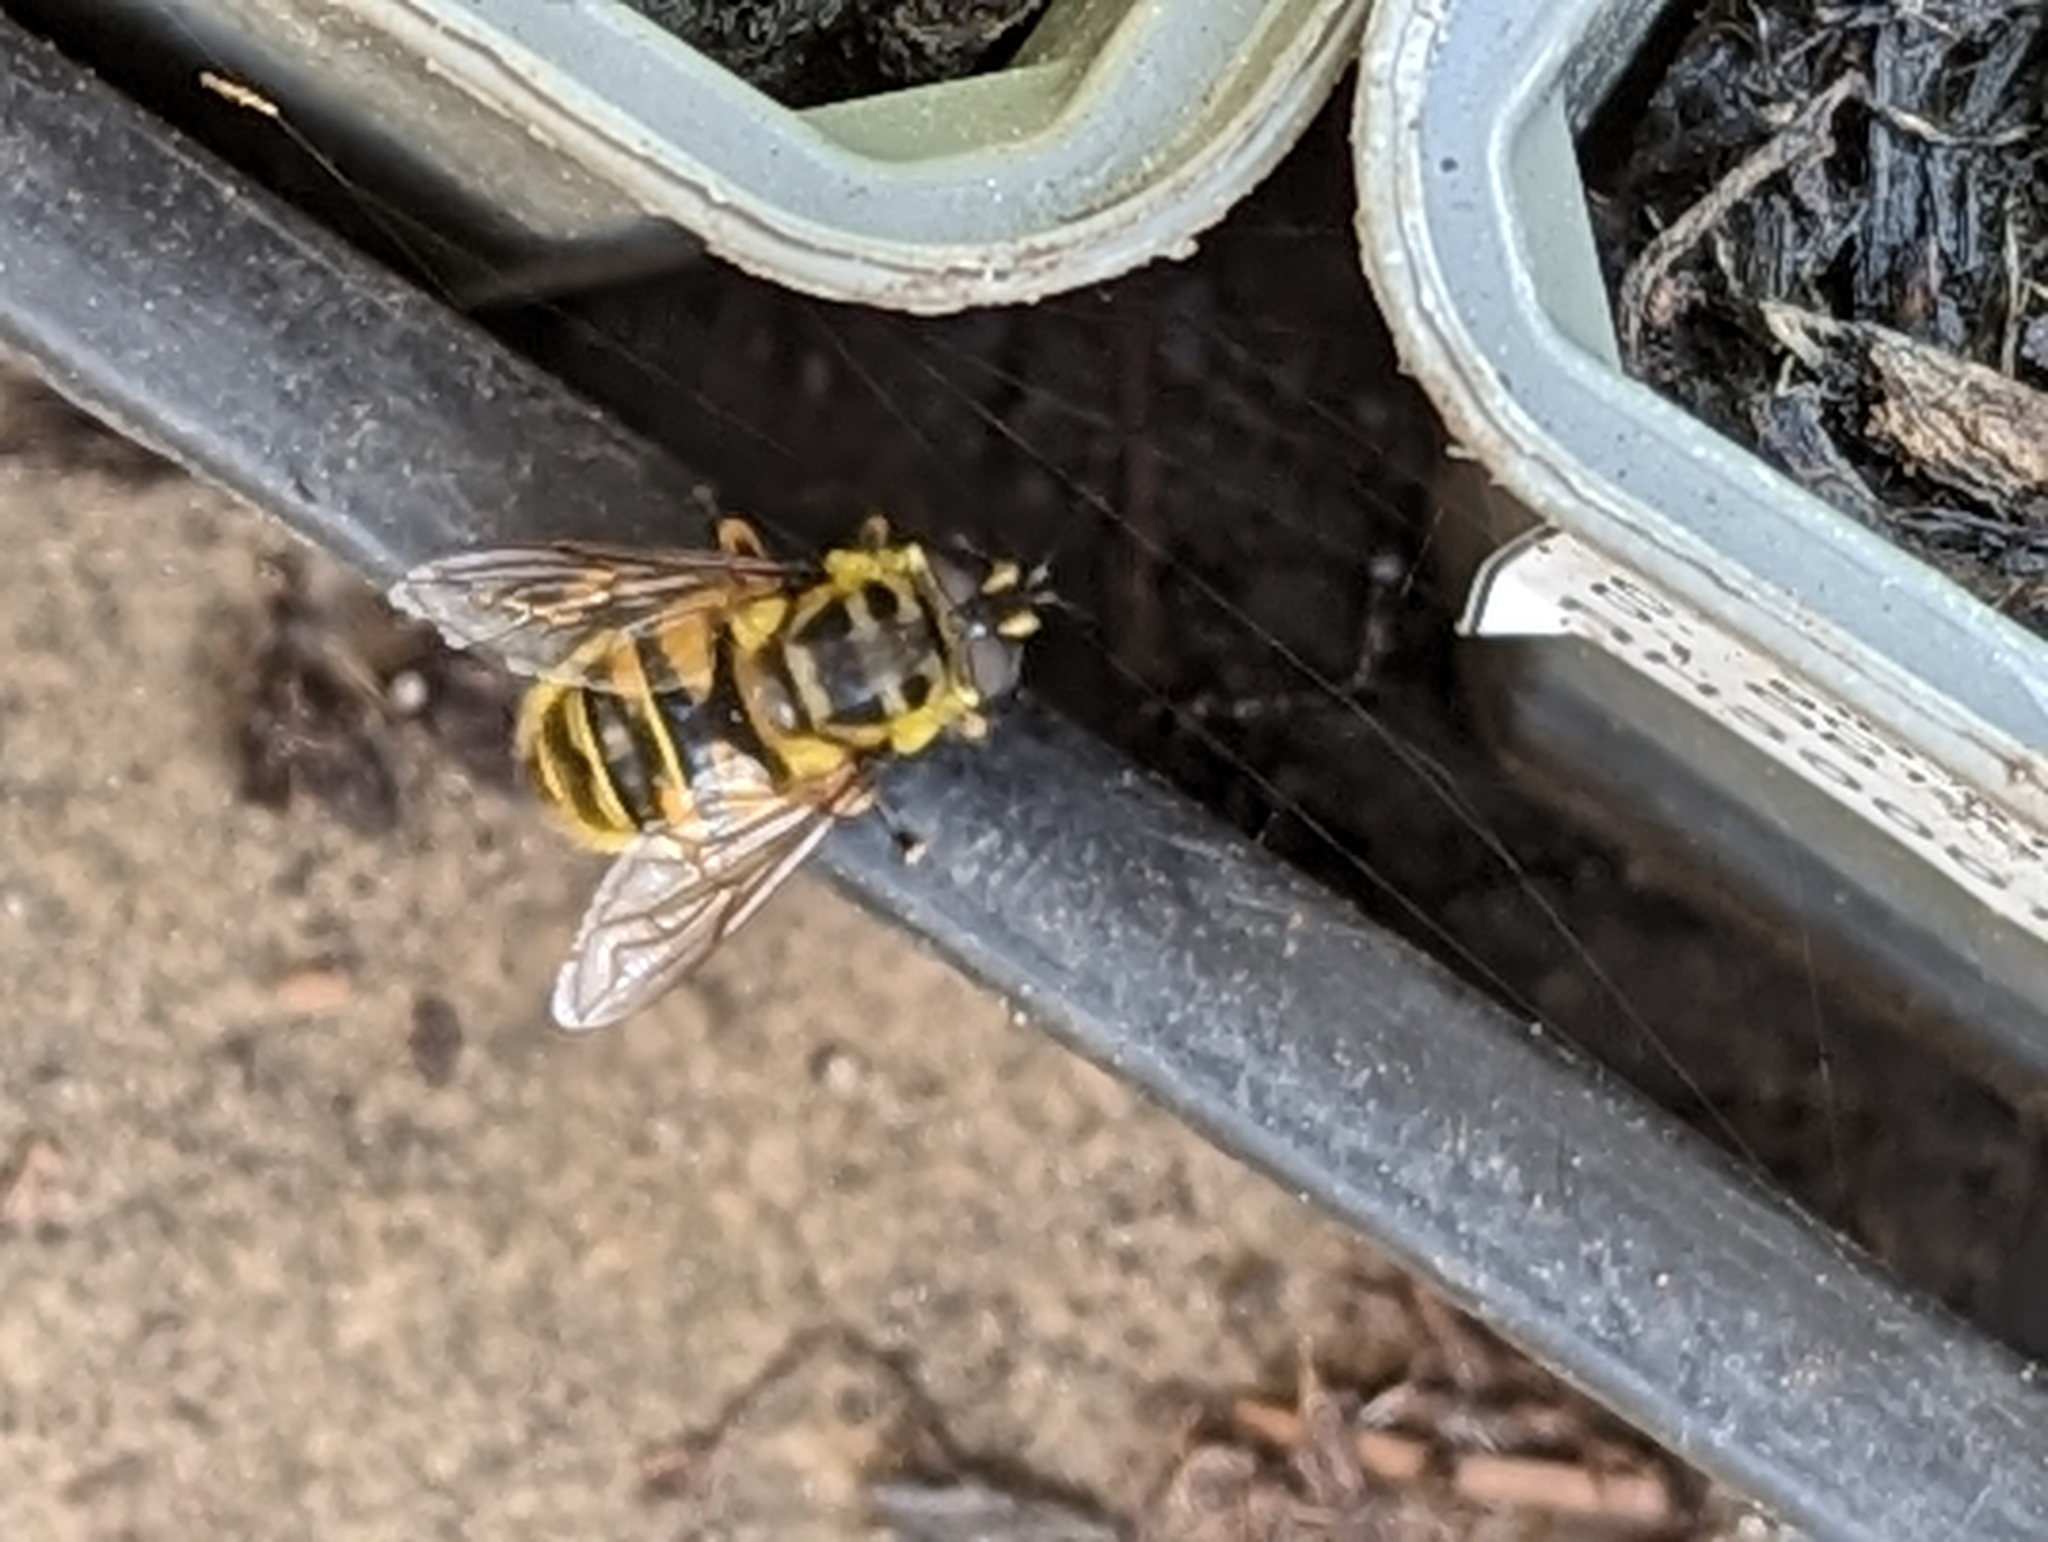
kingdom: Animalia
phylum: Arthropoda
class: Insecta
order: Diptera
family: Syrphidae
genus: Myathropa
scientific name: Myathropa florea
